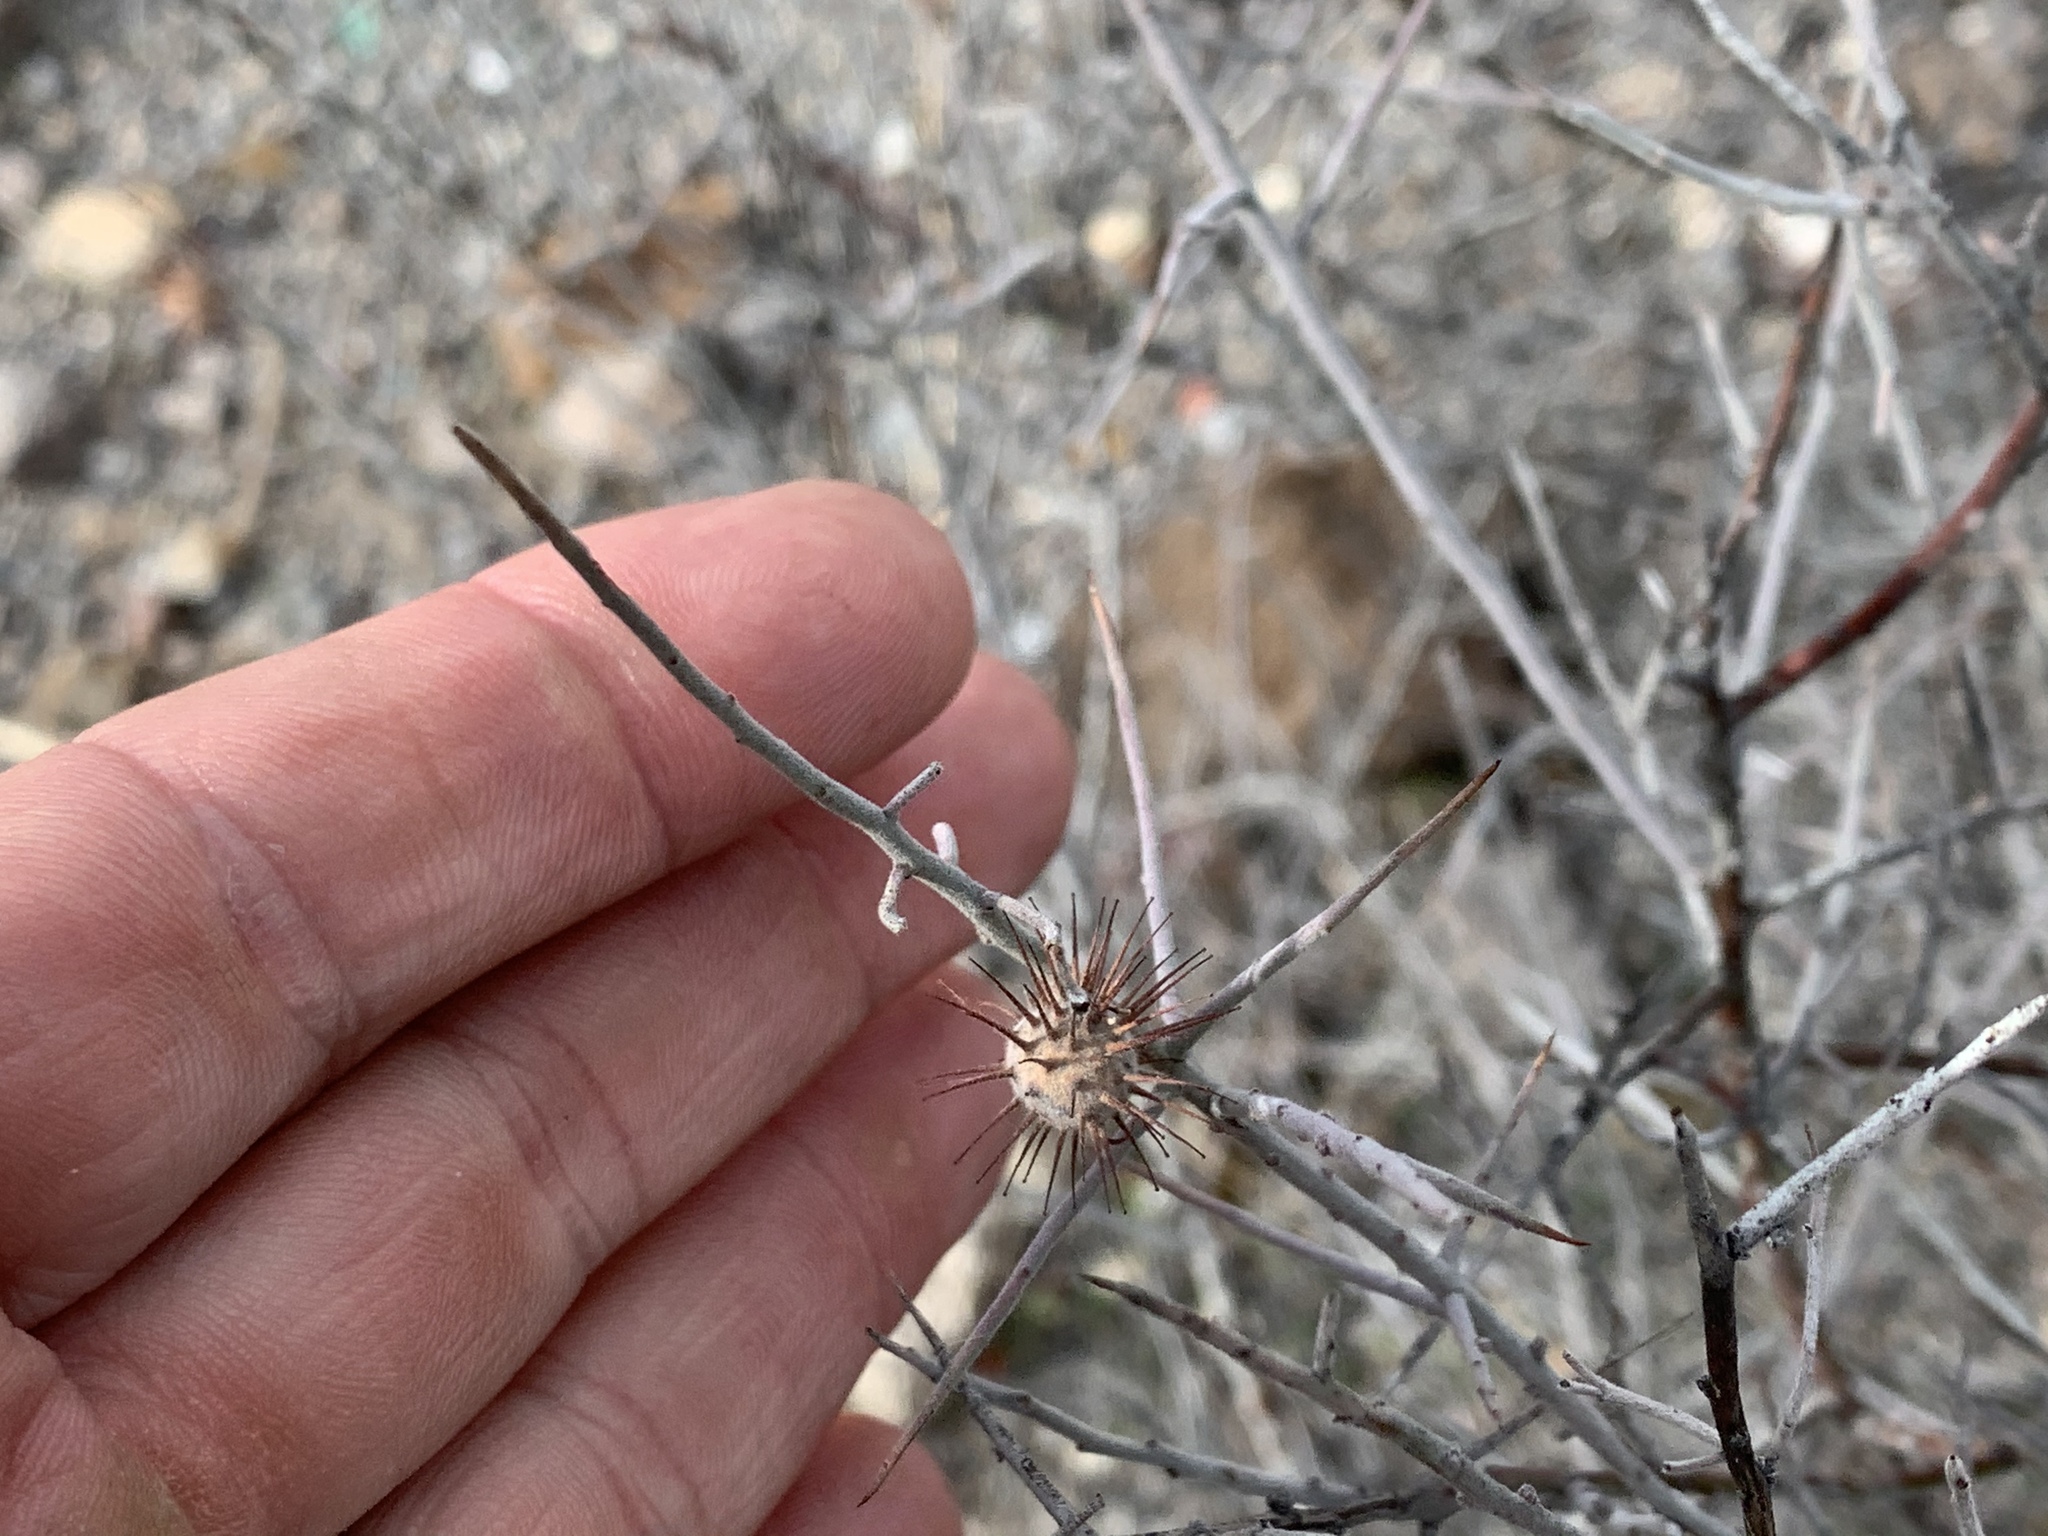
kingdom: Plantae
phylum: Tracheophyta
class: Magnoliopsida
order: Zygophyllales
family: Krameriaceae
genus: Krameria
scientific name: Krameria bicolor
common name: White ratany
